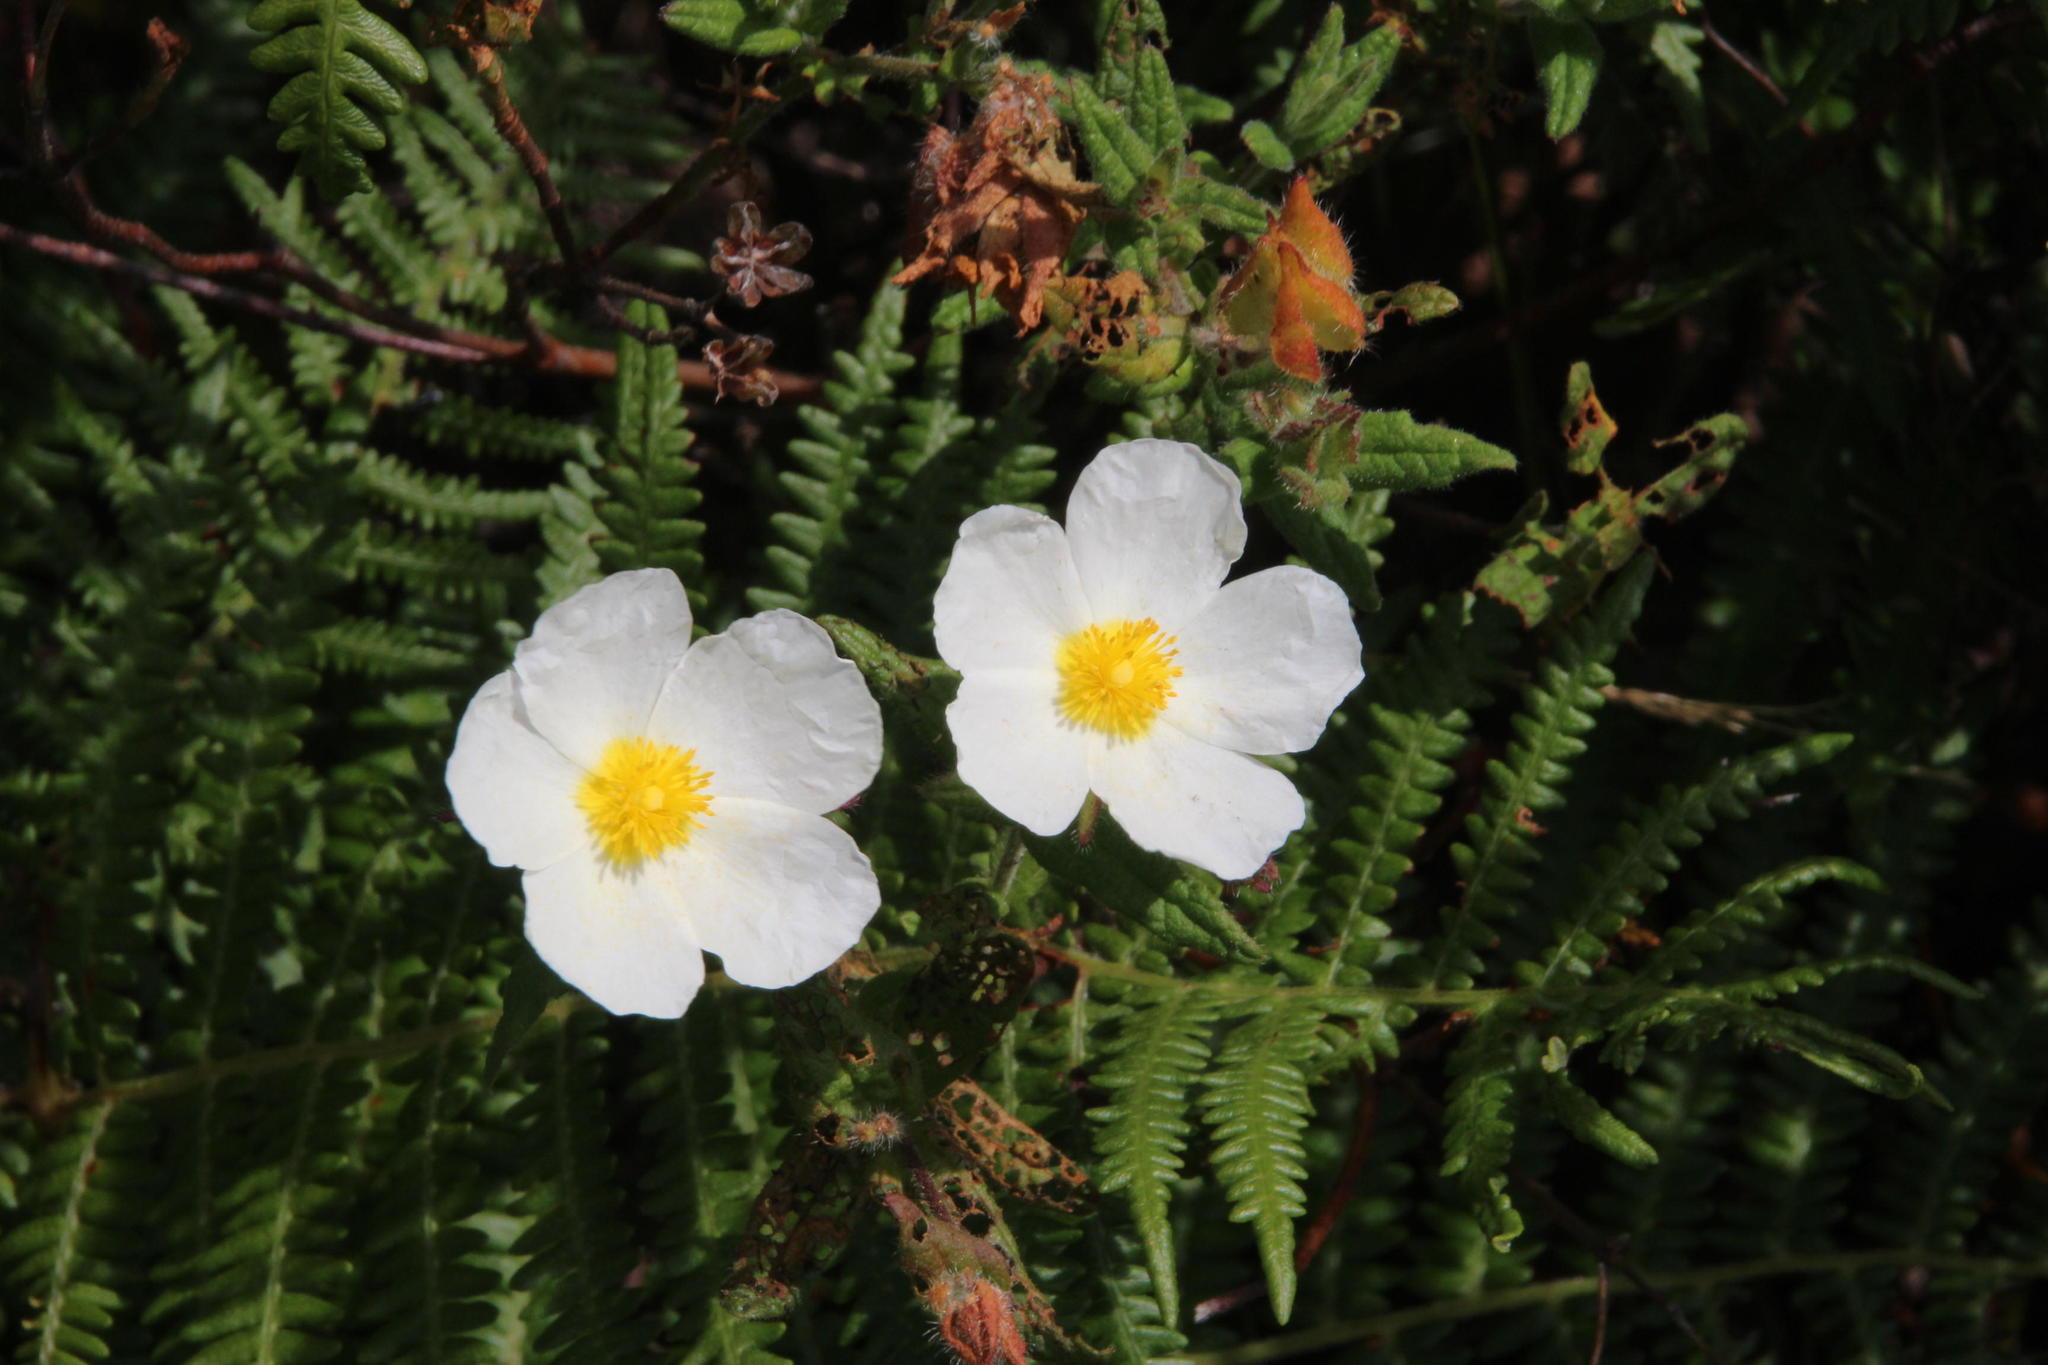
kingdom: Plantae
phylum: Tracheophyta
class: Magnoliopsida
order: Malvales
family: Cistaceae
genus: Cistus
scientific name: Cistus inflatus
